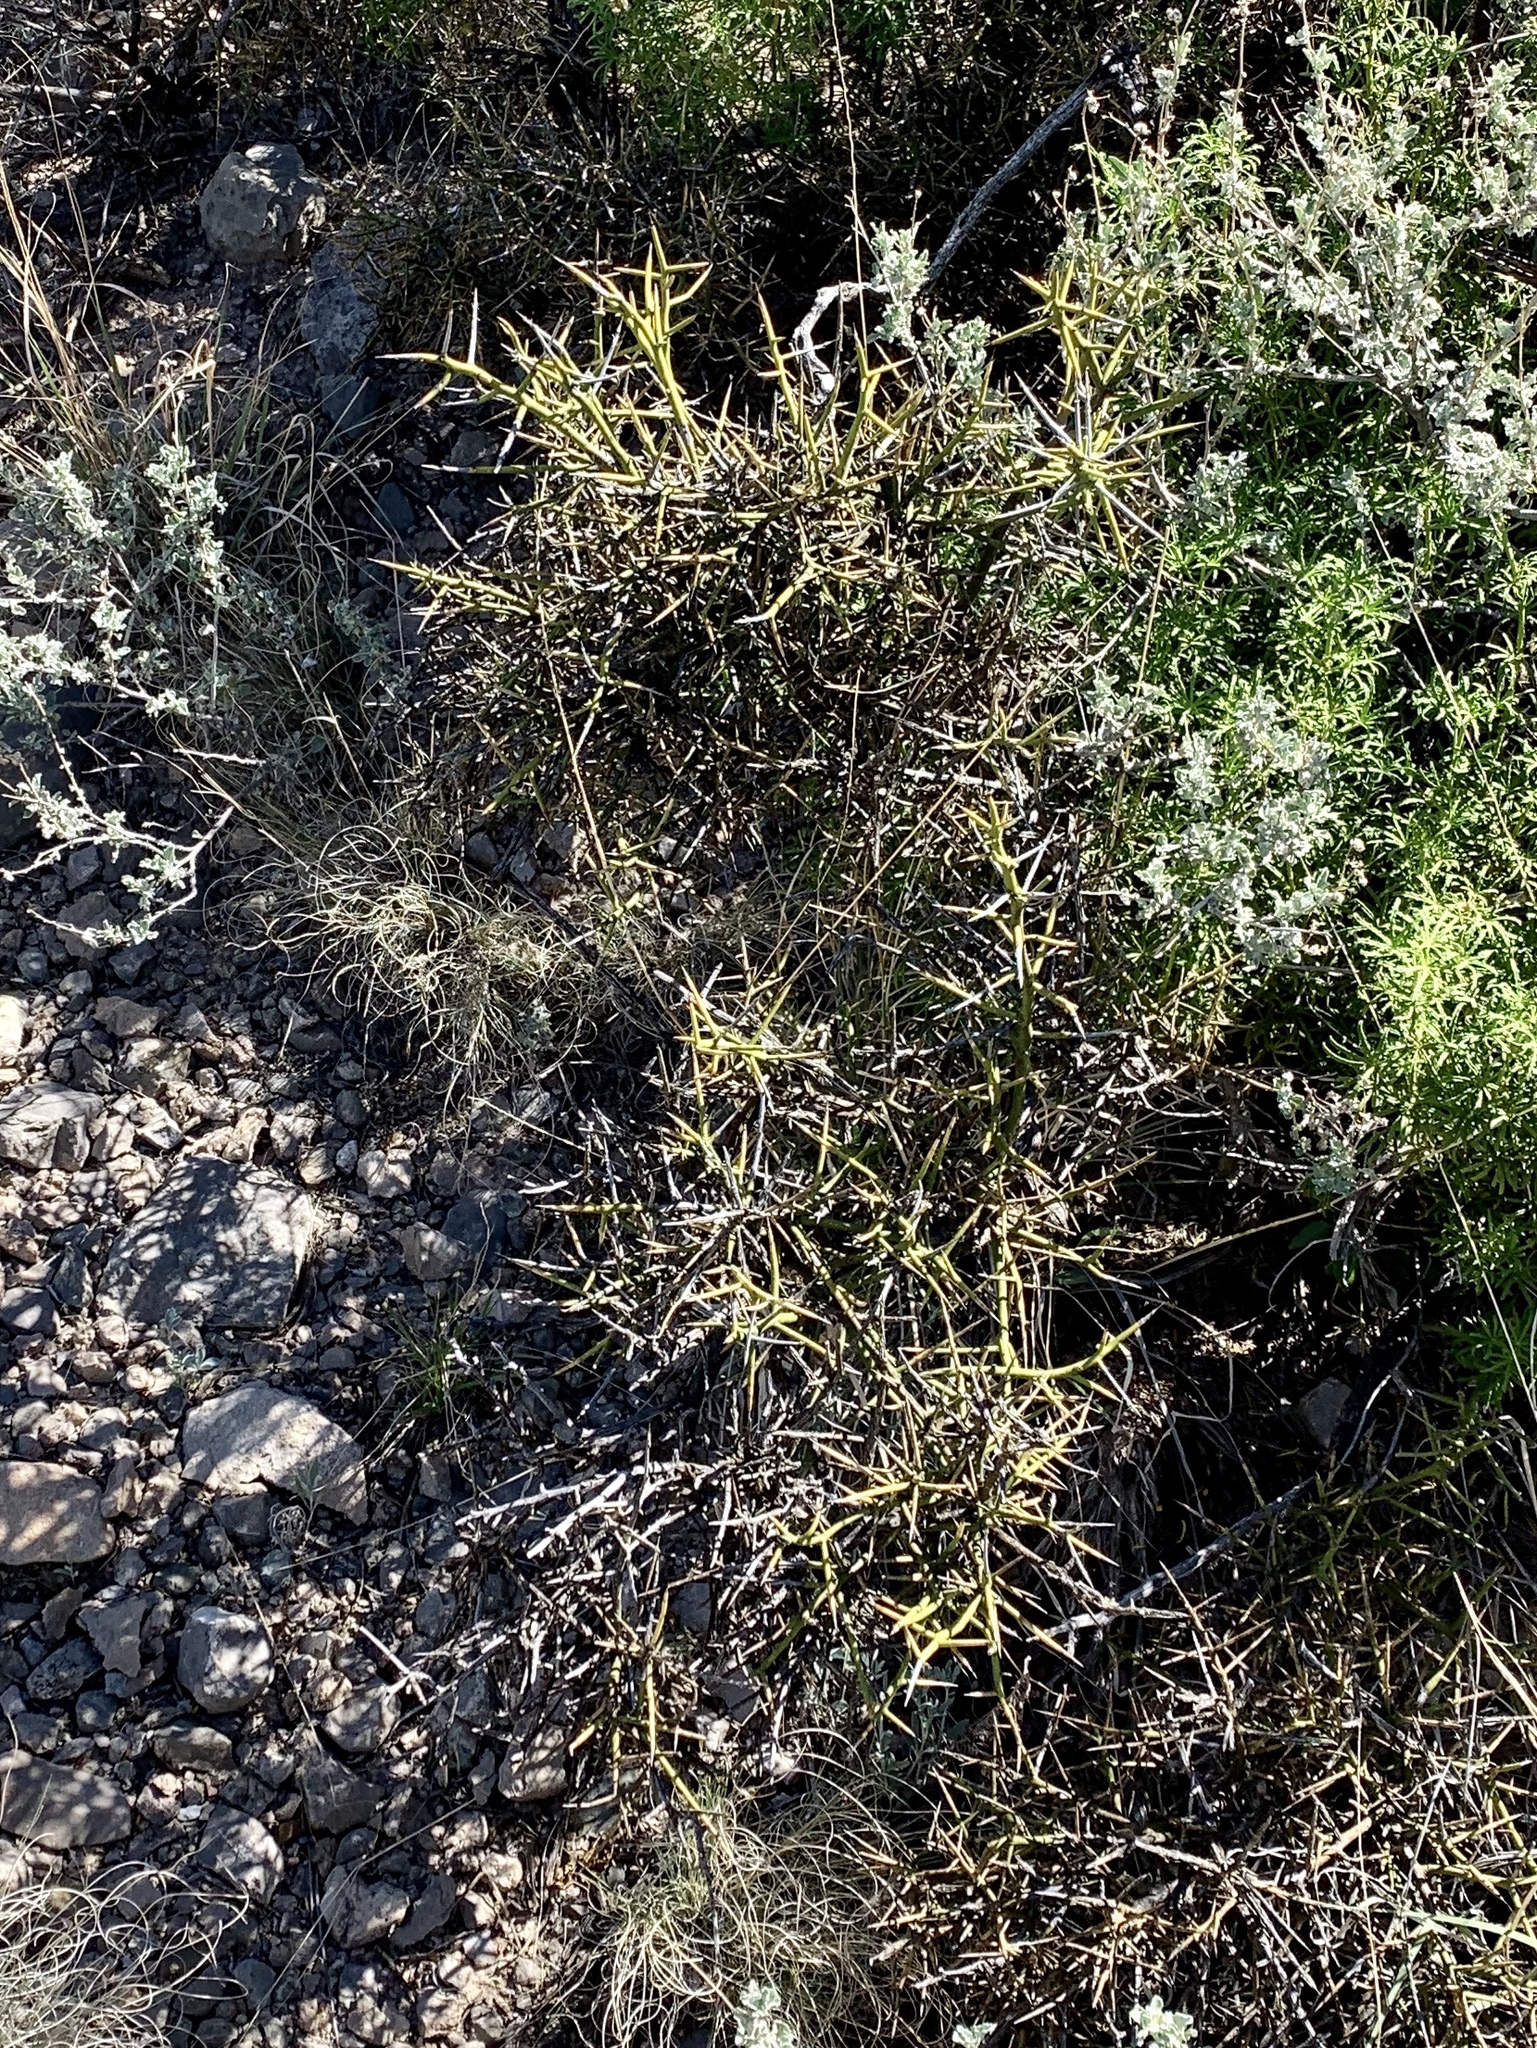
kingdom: Plantae
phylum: Tracheophyta
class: Magnoliopsida
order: Brassicales
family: Koeberliniaceae
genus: Koeberlinia
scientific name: Koeberlinia spinosa
